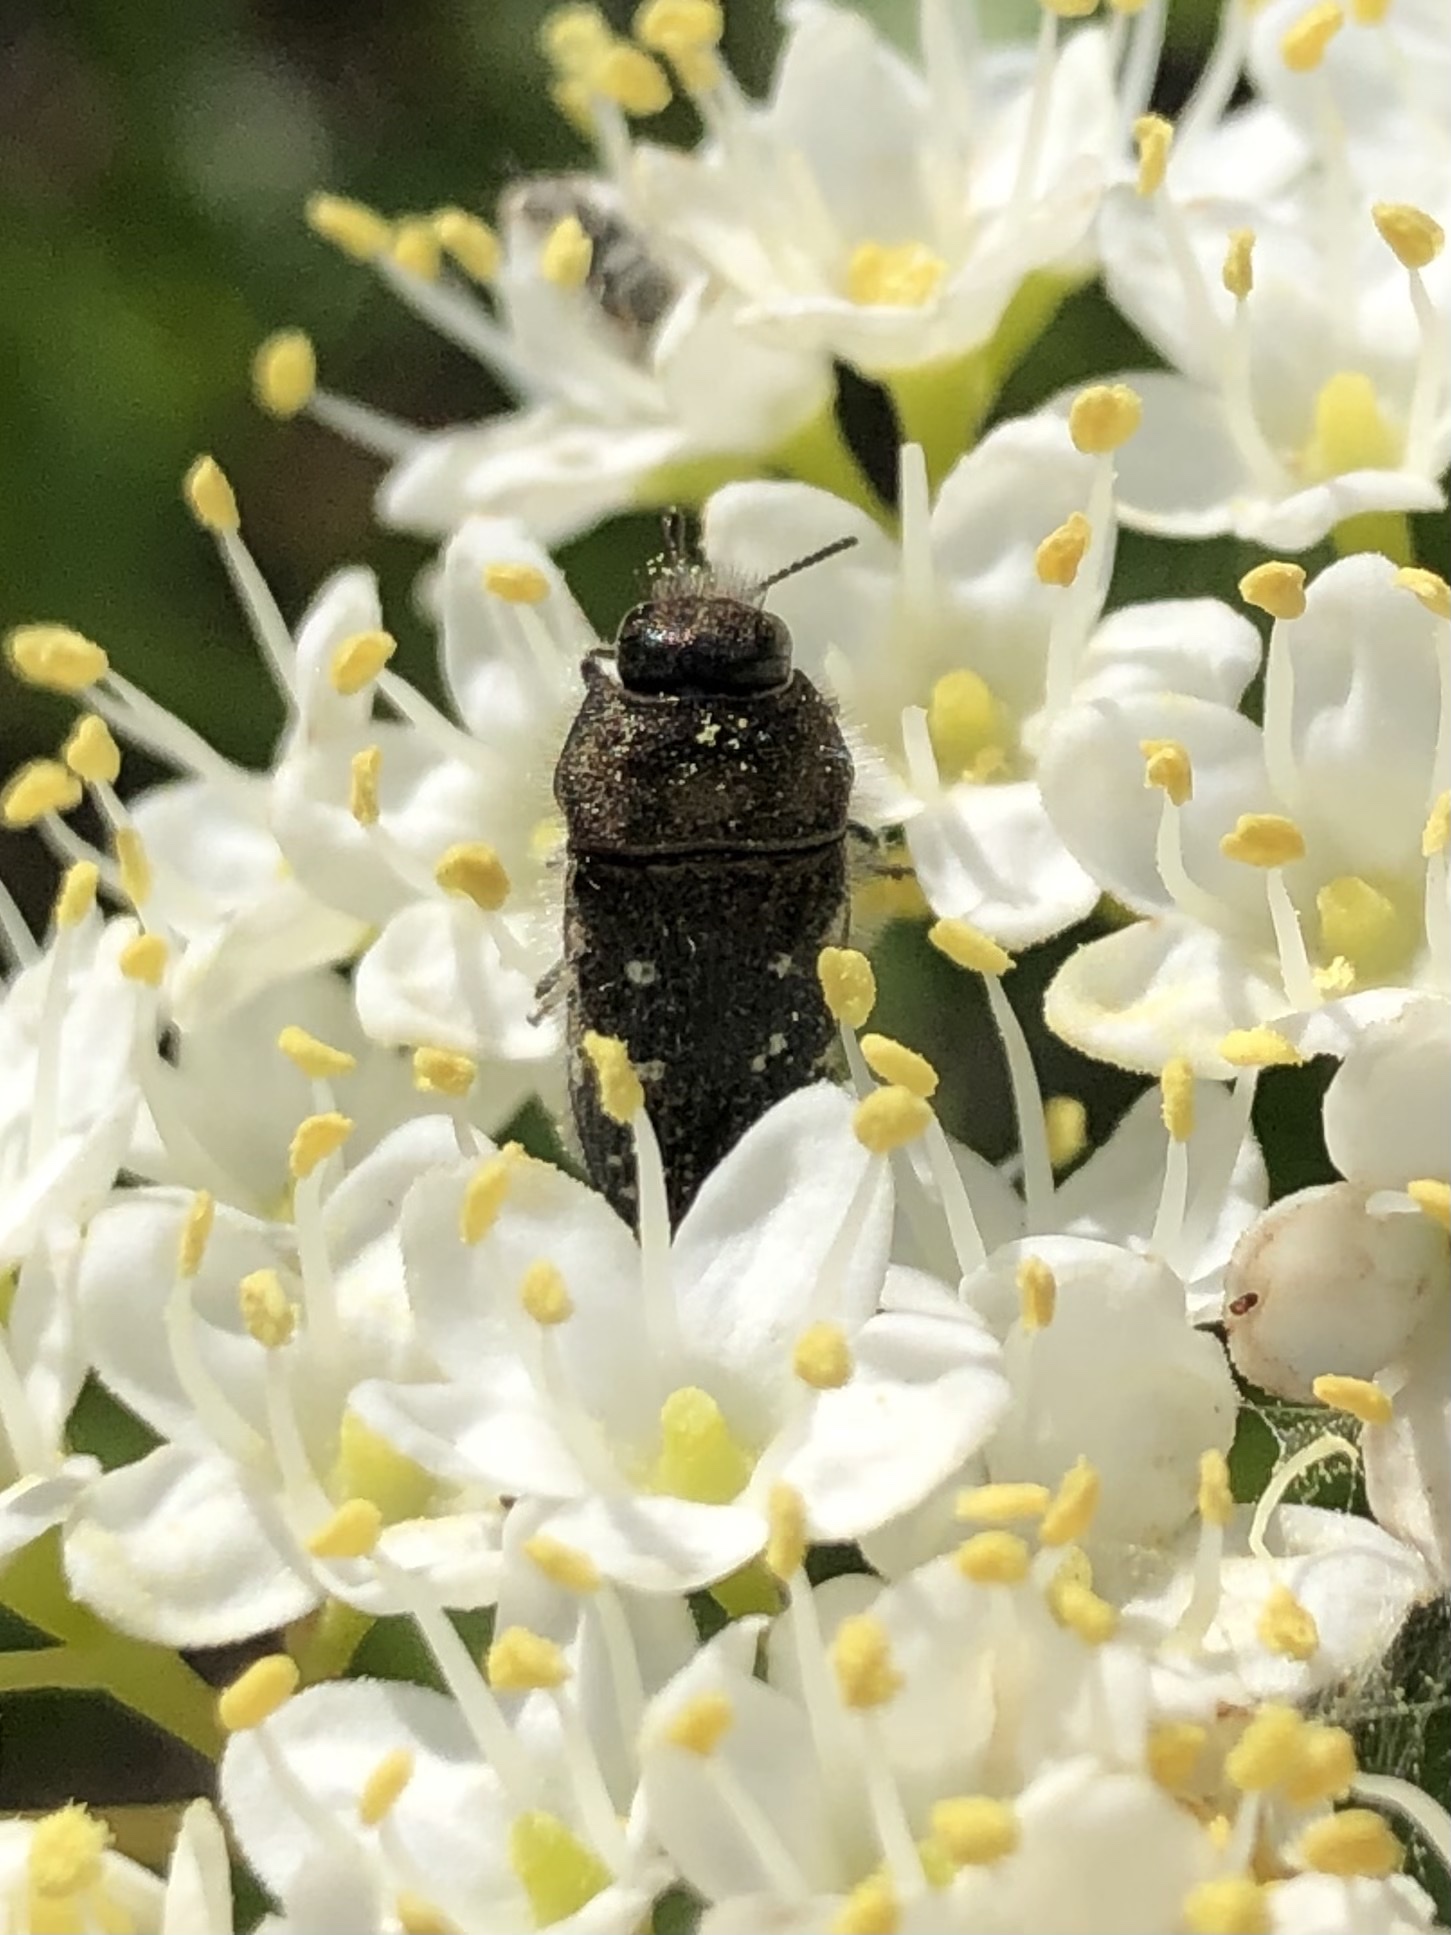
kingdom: Animalia
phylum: Arthropoda
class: Insecta
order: Coleoptera
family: Buprestidae
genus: Acmaeodera
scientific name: Acmaeodera ornatoides
